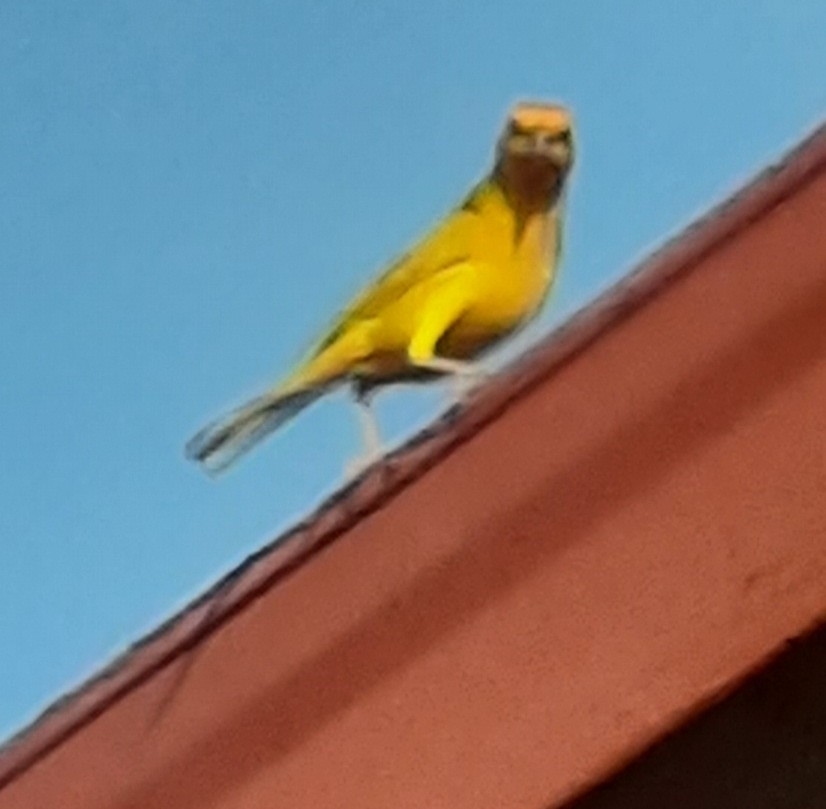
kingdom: Animalia
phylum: Chordata
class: Aves
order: Passeriformes
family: Thraupidae
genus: Sicalis
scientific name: Sicalis flaveola
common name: Saffron finch
